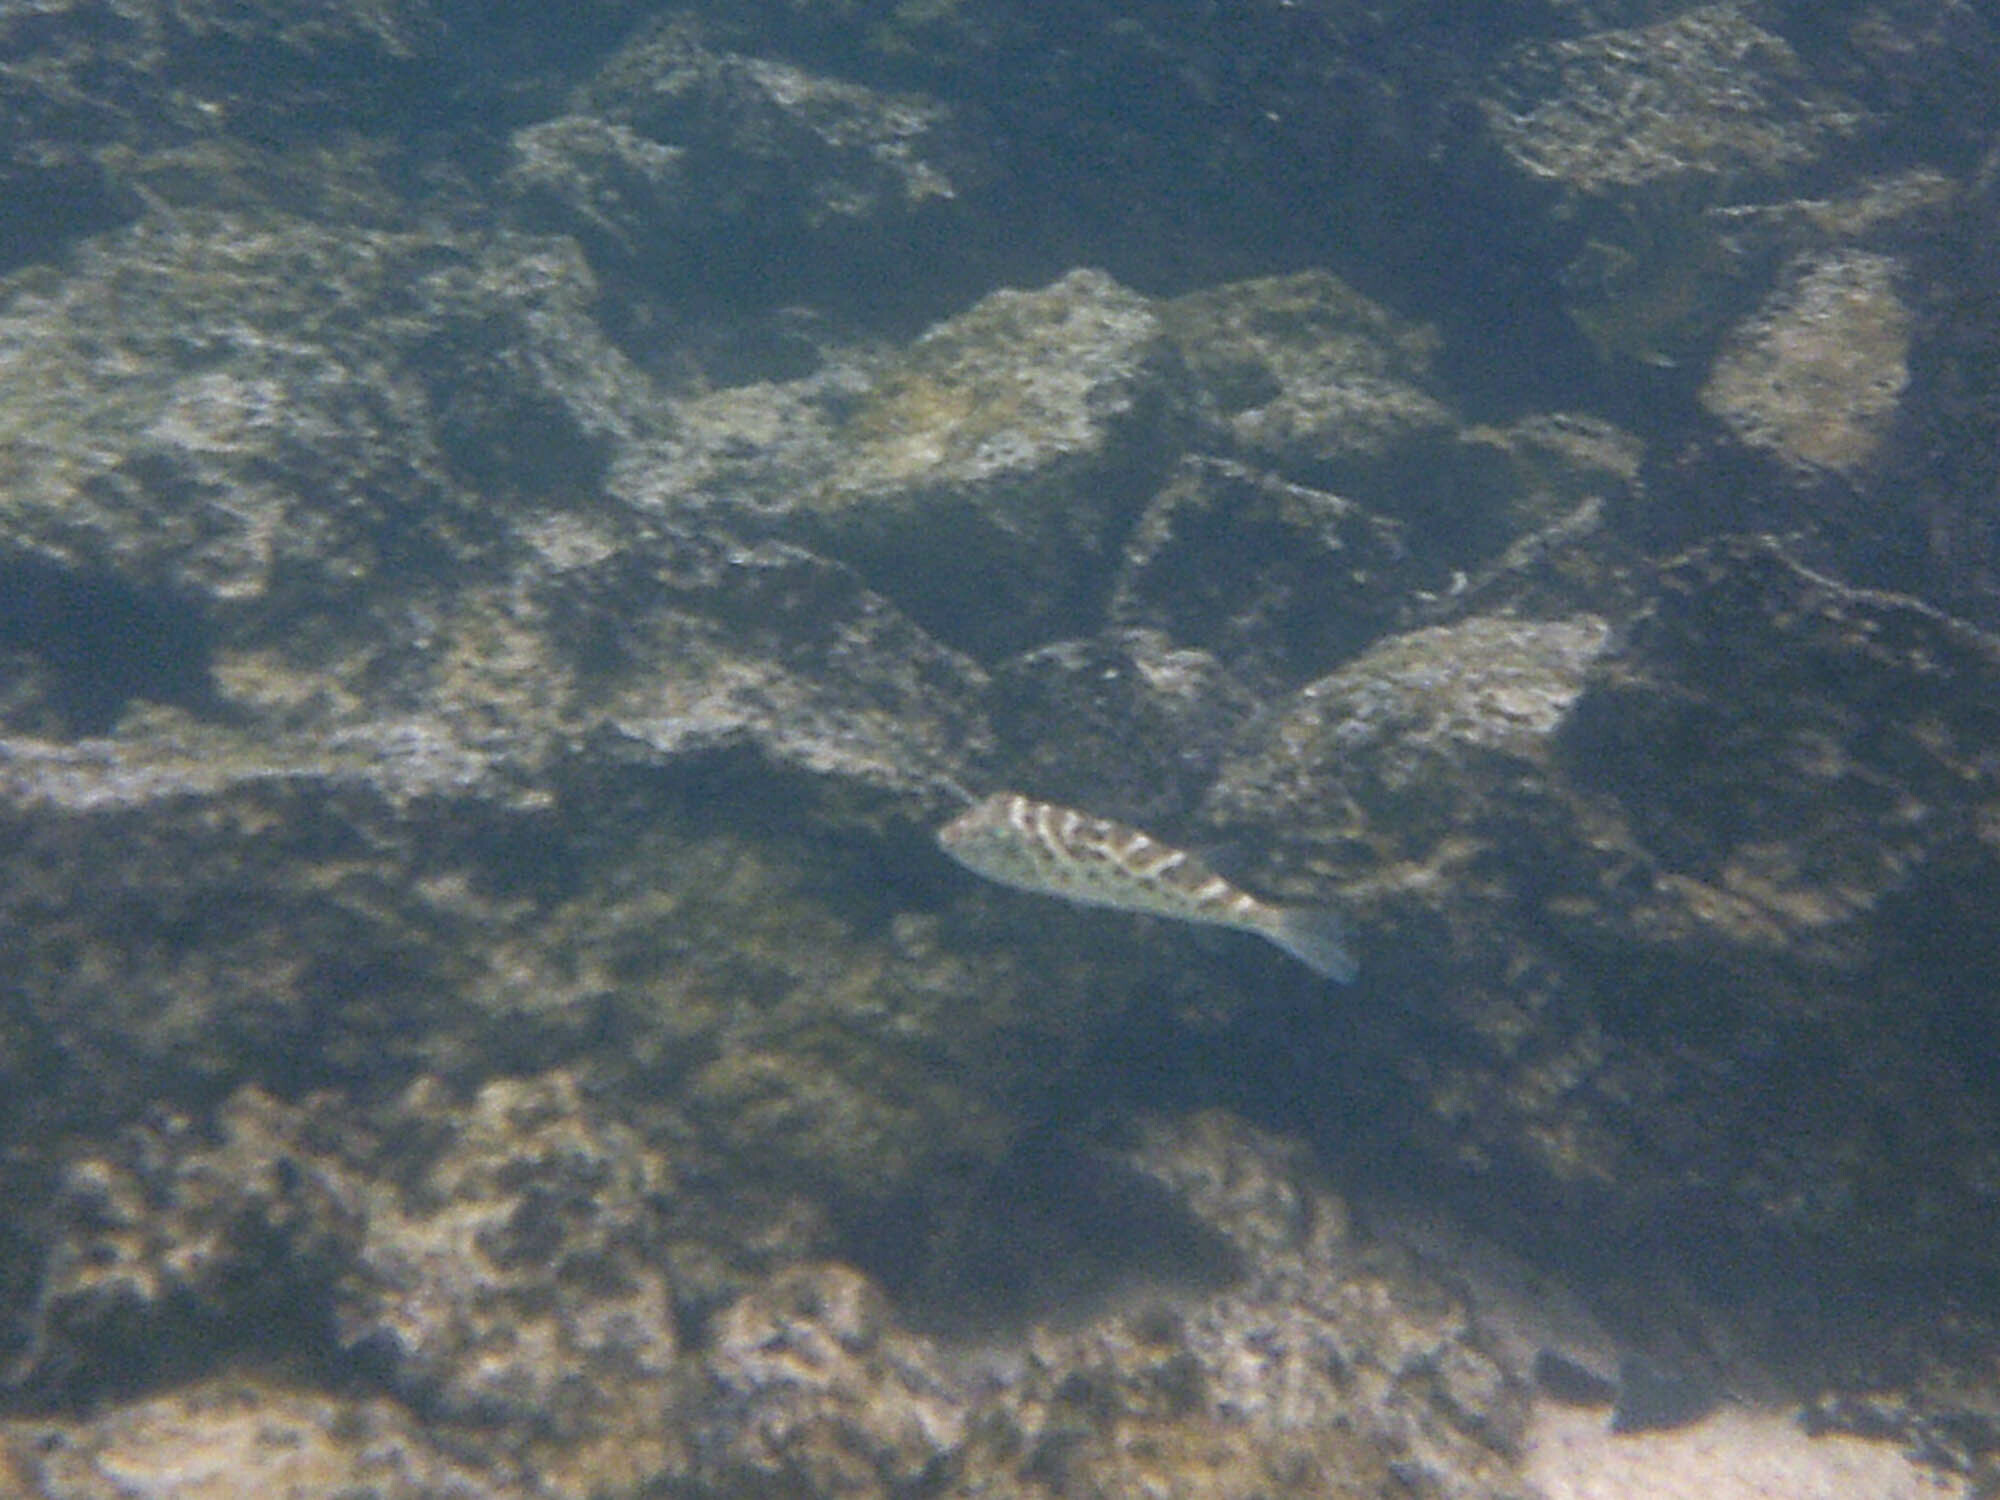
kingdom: Animalia
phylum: Chordata
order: Tetraodontiformes
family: Tetraodontidae
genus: Sphoeroides
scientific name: Sphoeroides annulatus
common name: Bullseye puffer
